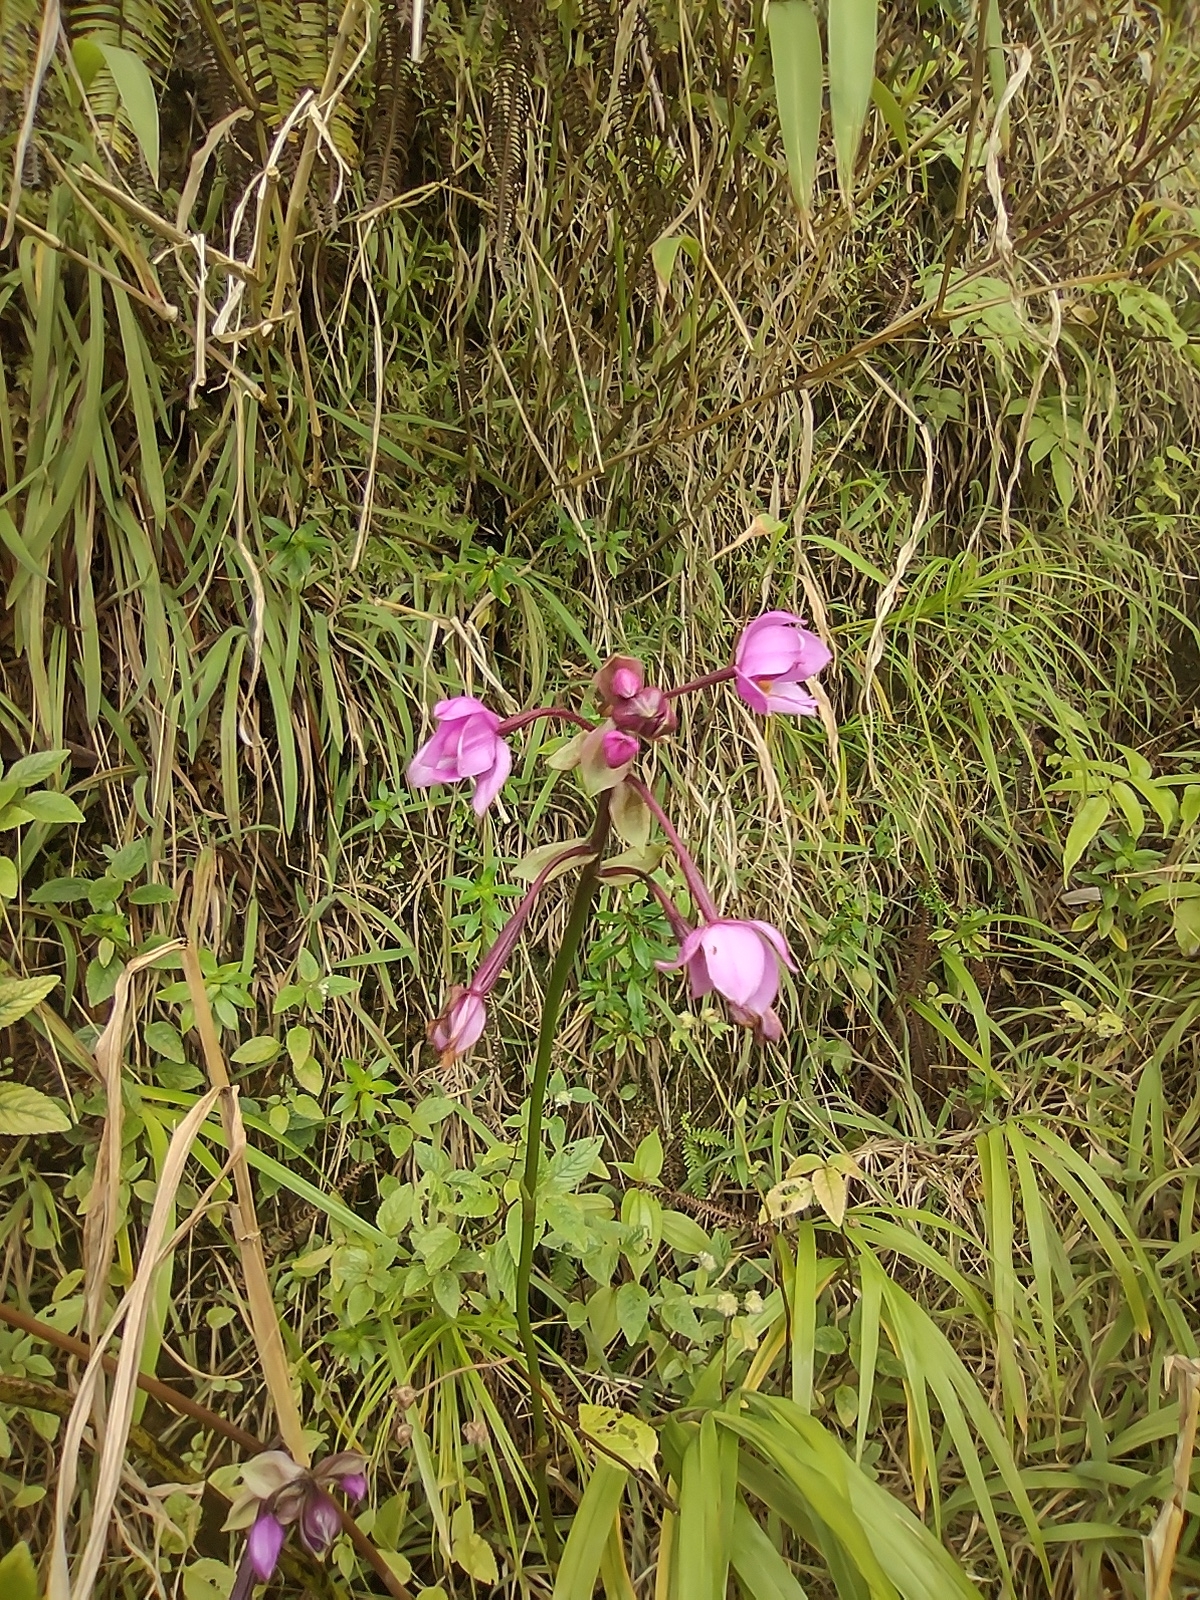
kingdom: Plantae
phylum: Tracheophyta
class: Liliopsida
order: Asparagales
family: Orchidaceae
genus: Spathoglottis
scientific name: Spathoglottis plicata
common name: Philippine ground orchid
